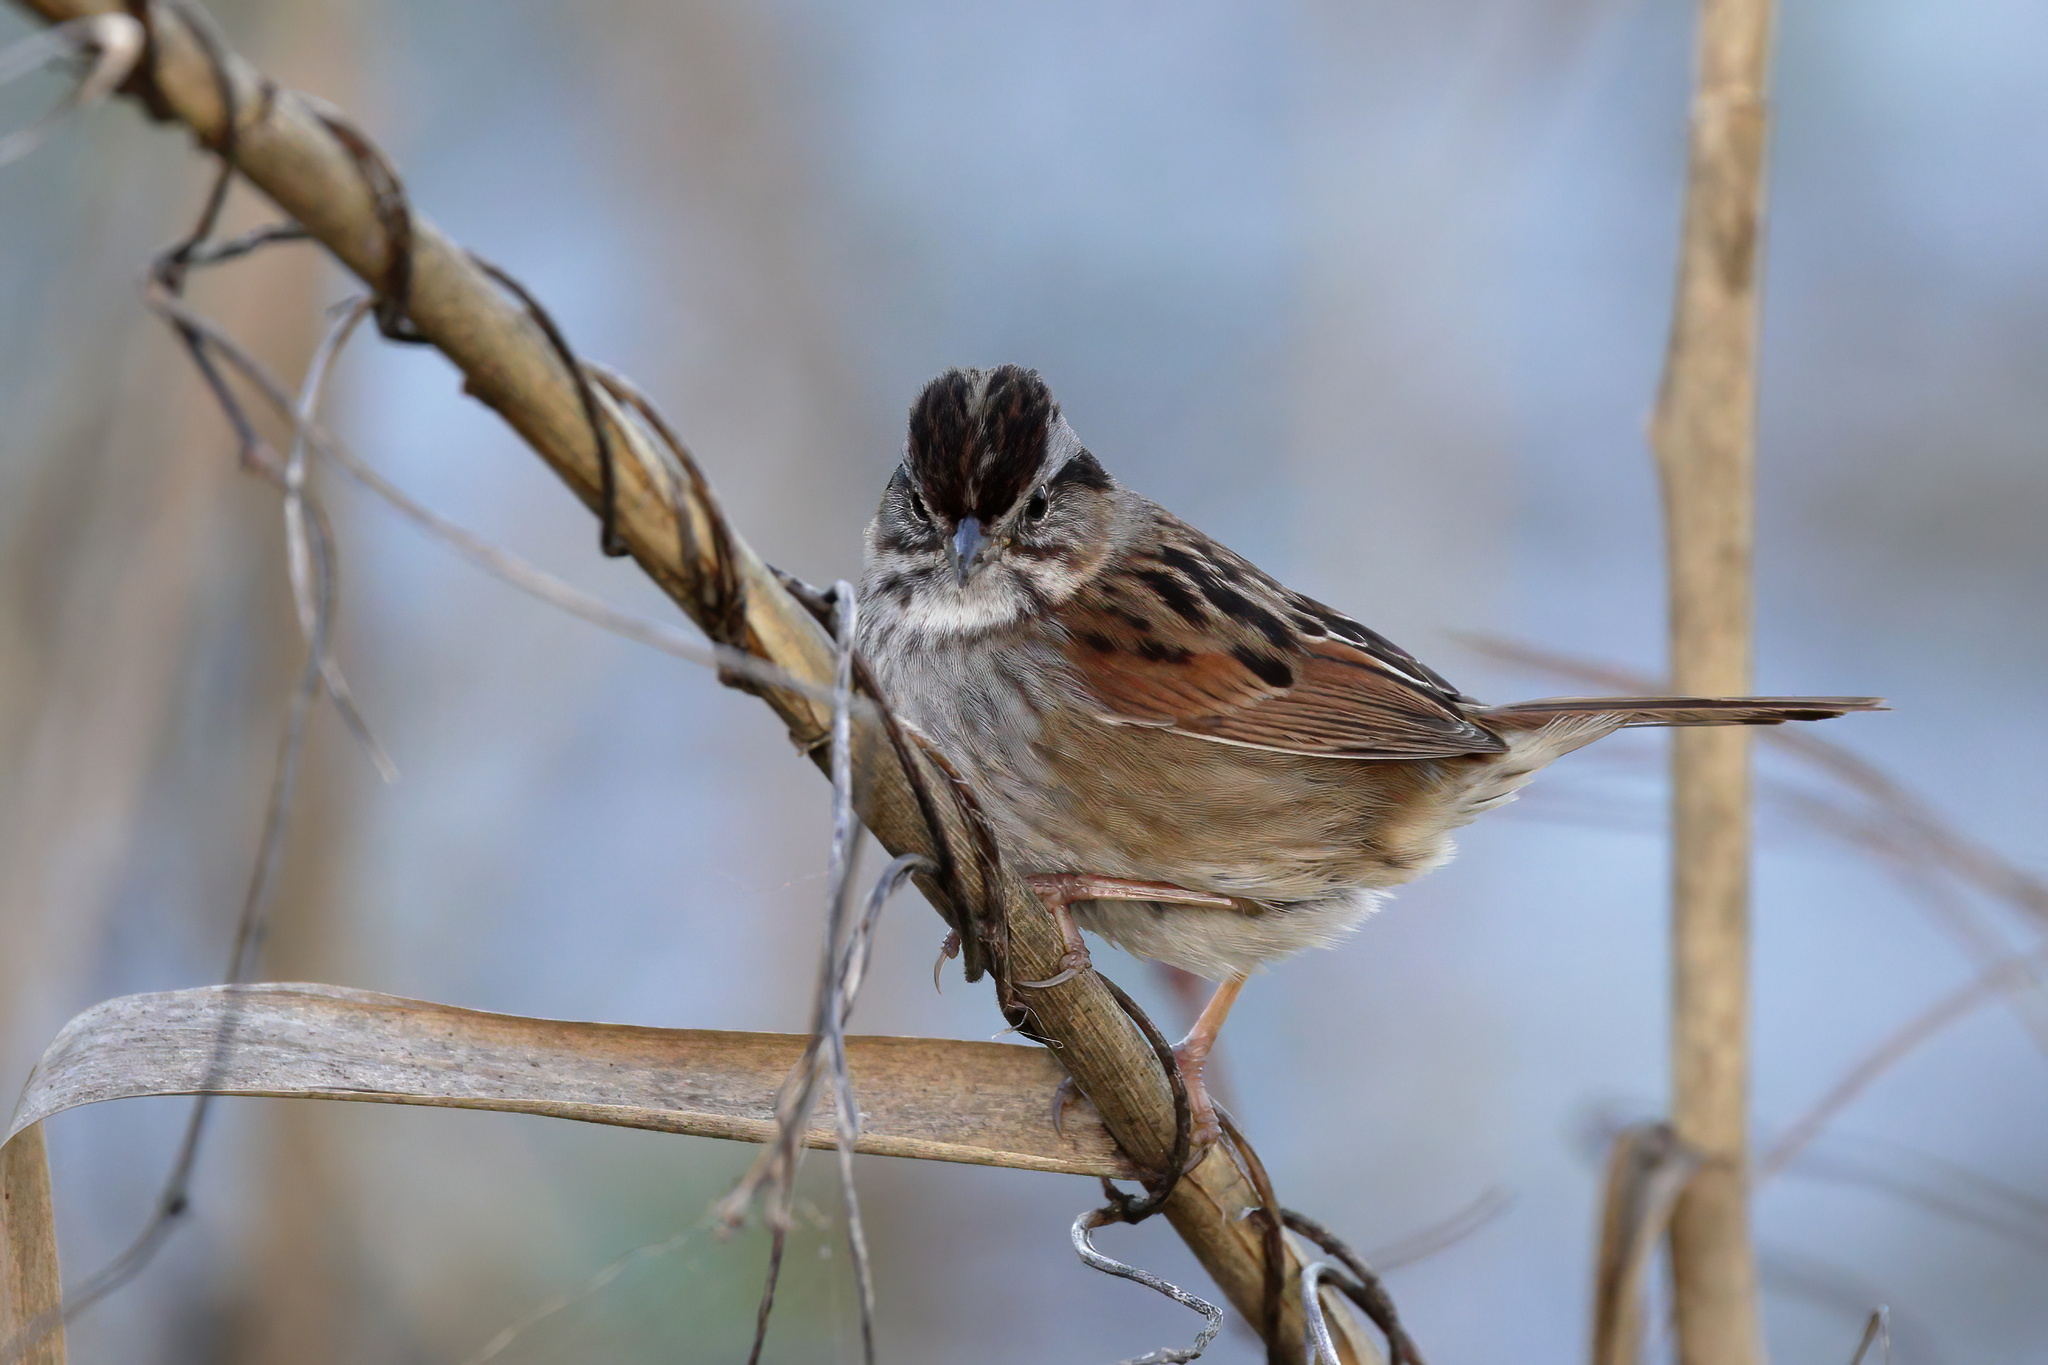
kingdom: Animalia
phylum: Chordata
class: Aves
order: Passeriformes
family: Passerellidae
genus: Melospiza
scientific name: Melospiza georgiana
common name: Swamp sparrow
